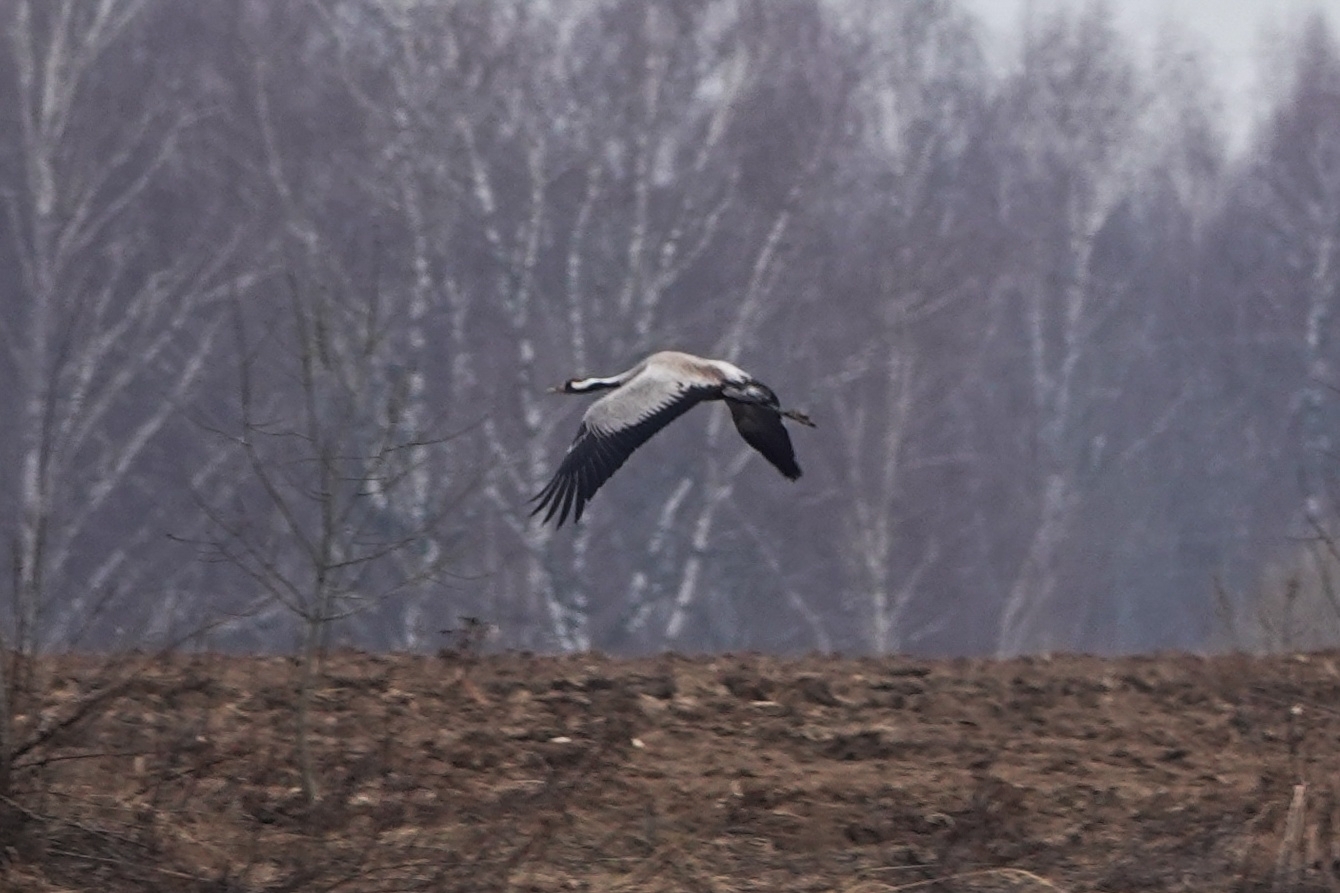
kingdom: Animalia
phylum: Chordata
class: Aves
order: Gruiformes
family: Gruidae
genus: Grus
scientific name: Grus grus
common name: Common crane
